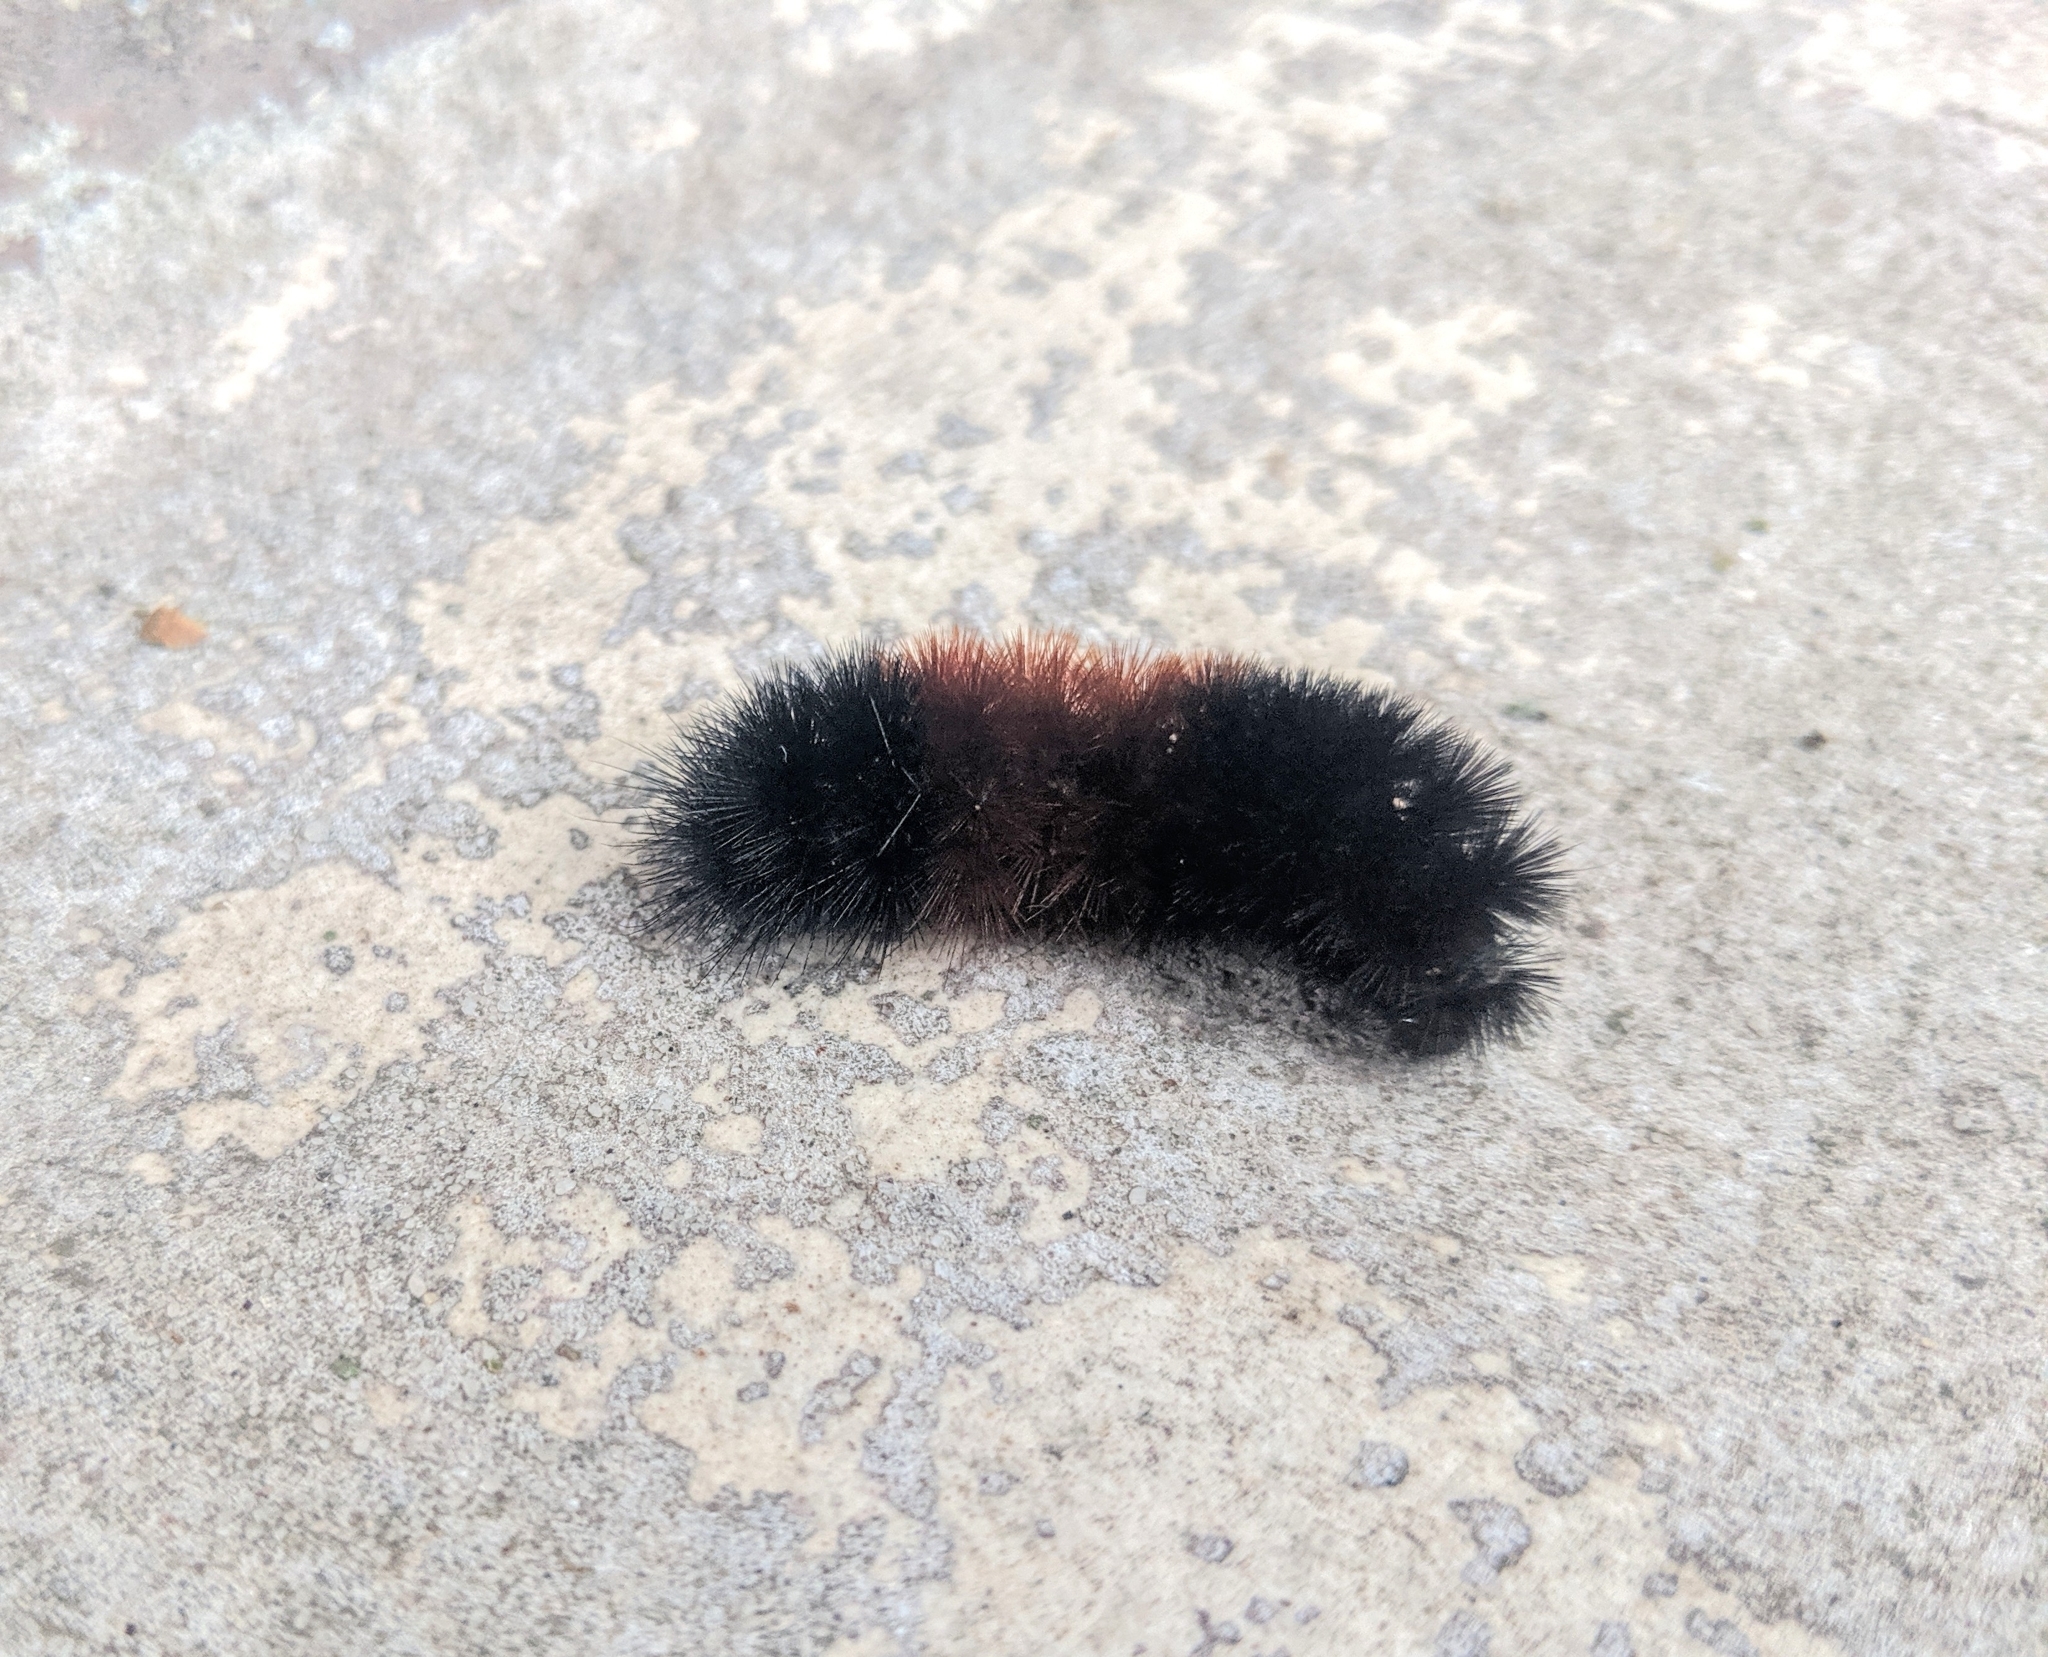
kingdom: Animalia
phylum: Arthropoda
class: Insecta
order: Lepidoptera
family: Erebidae
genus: Pyrrharctia
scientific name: Pyrrharctia isabella
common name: Isabella tiger moth
